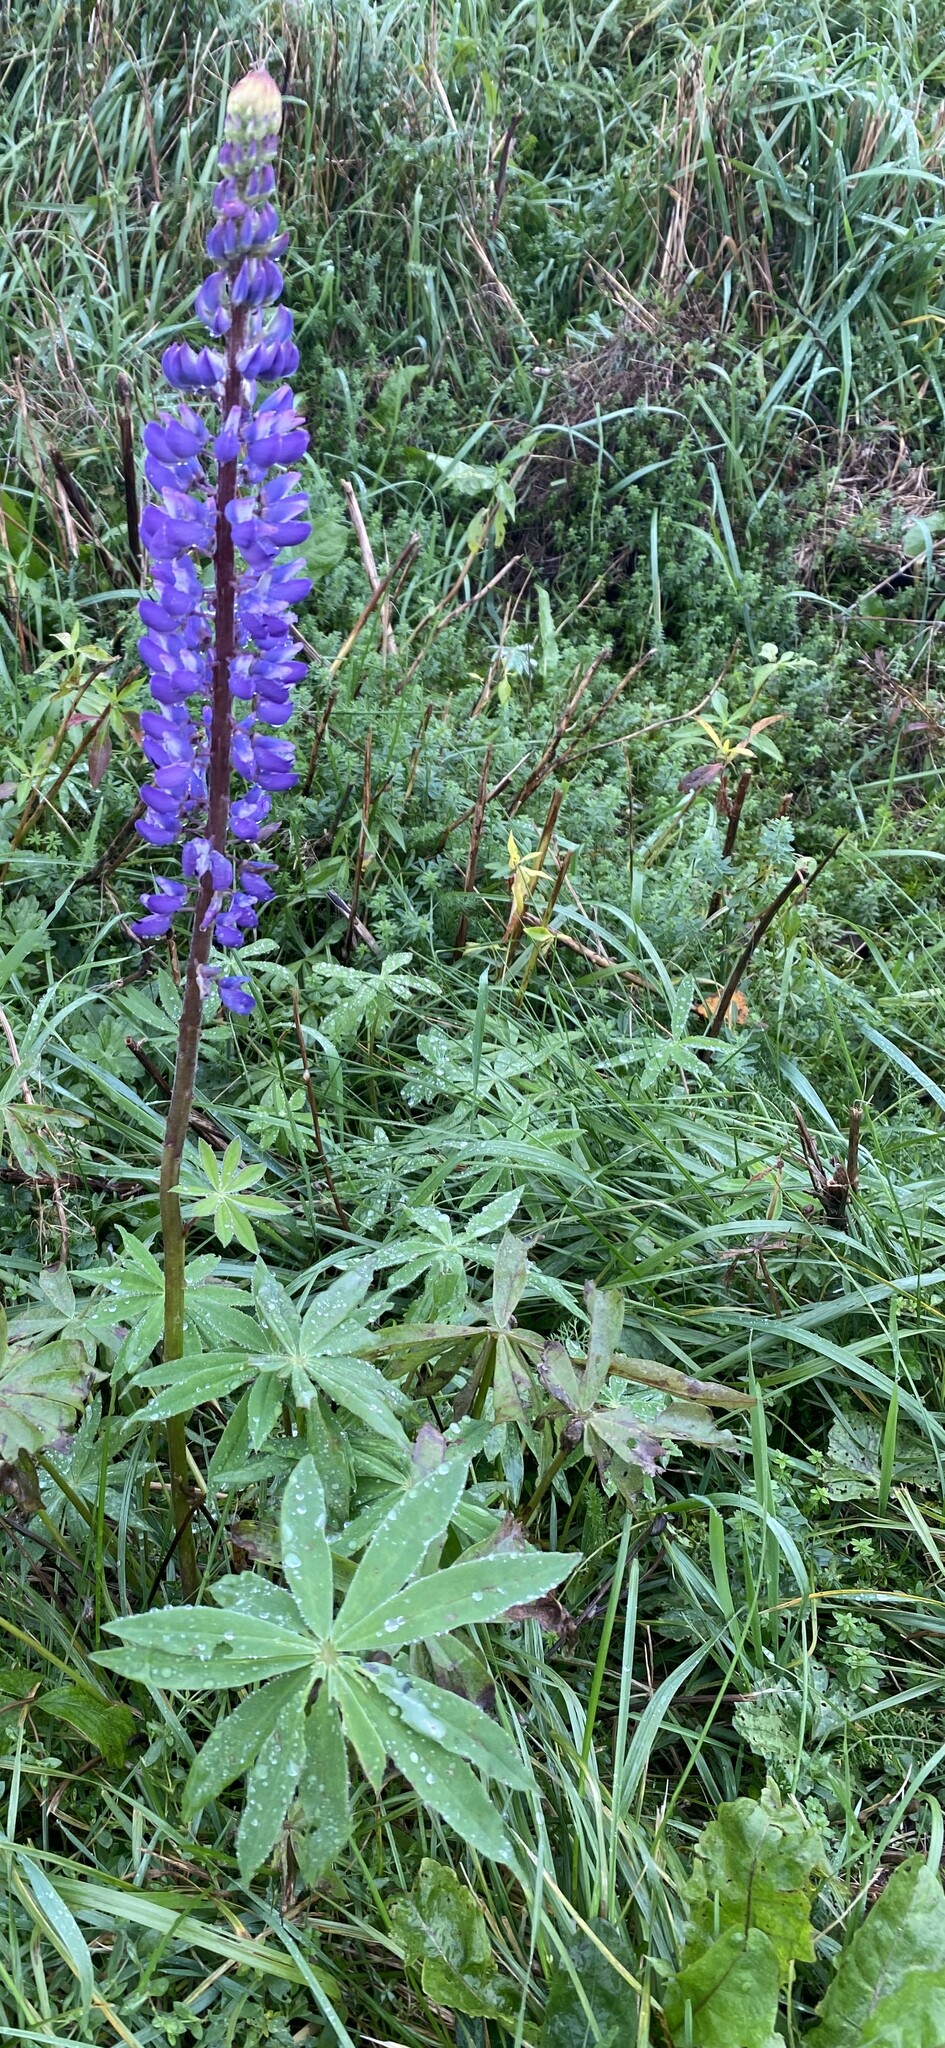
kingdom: Plantae
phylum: Tracheophyta
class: Magnoliopsida
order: Fabales
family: Fabaceae
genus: Lupinus
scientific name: Lupinus polyphyllus
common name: Garden lupin
